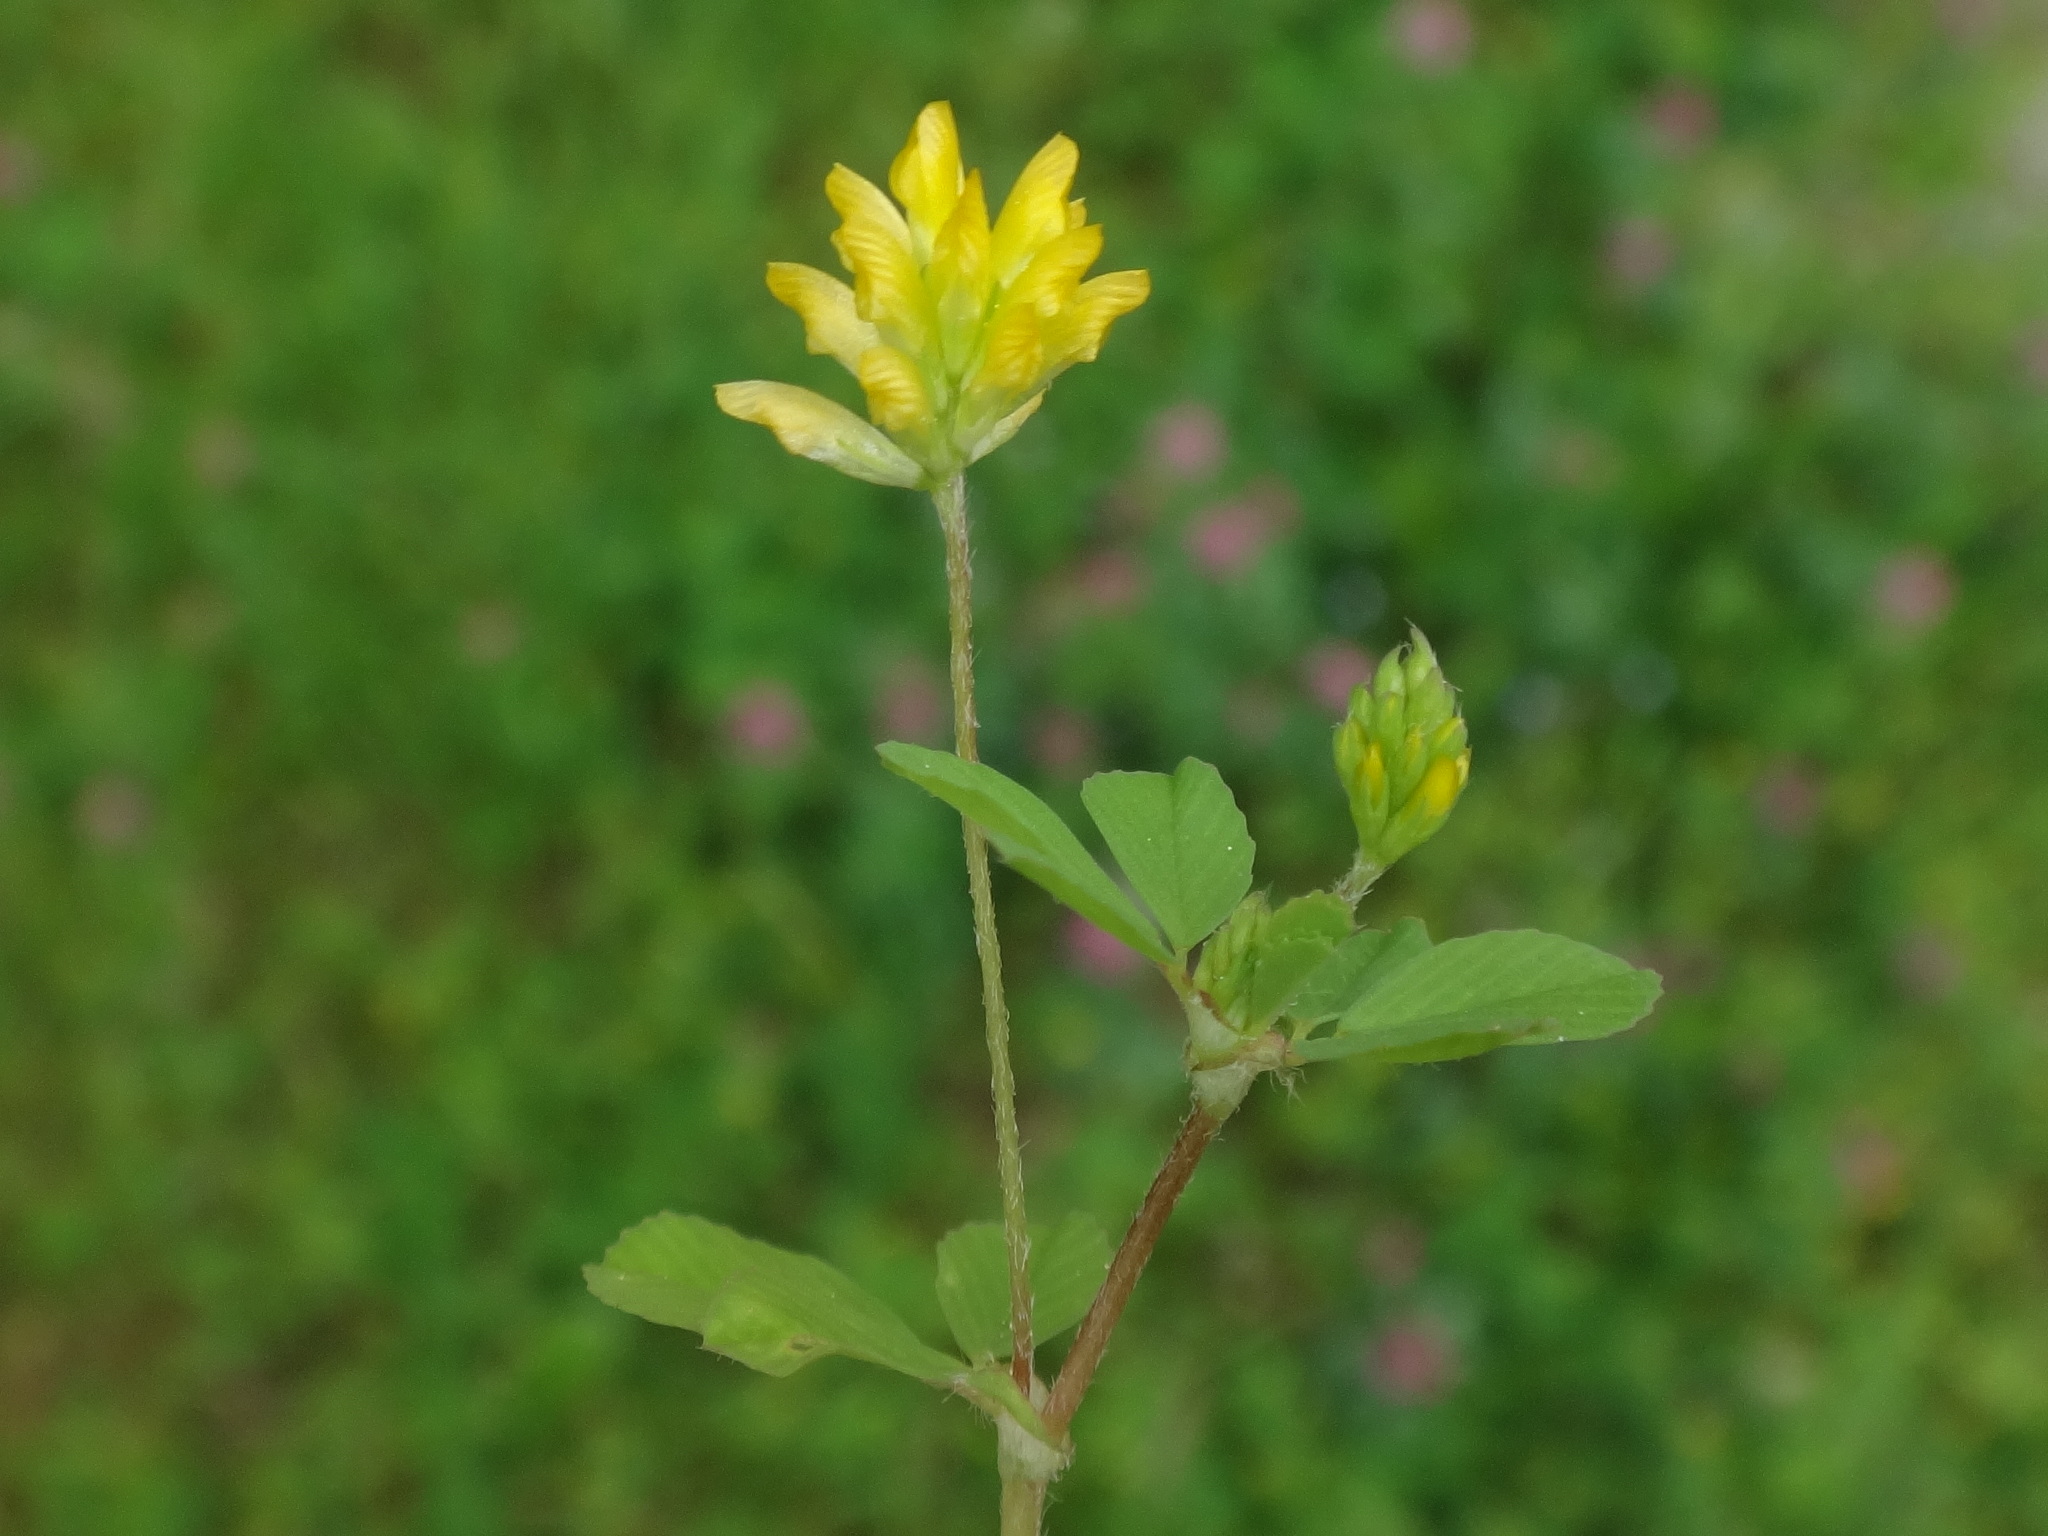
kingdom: Plantae
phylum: Tracheophyta
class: Magnoliopsida
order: Fabales
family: Fabaceae
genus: Trifolium
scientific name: Trifolium dubium
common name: Suckling clover
